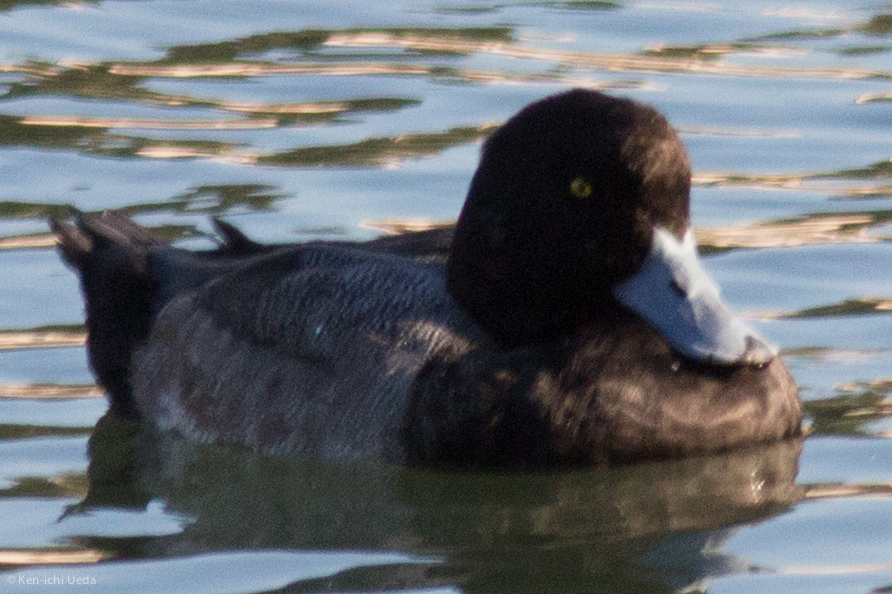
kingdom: Animalia
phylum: Chordata
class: Aves
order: Anseriformes
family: Anatidae
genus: Aythya
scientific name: Aythya marila
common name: Greater scaup
